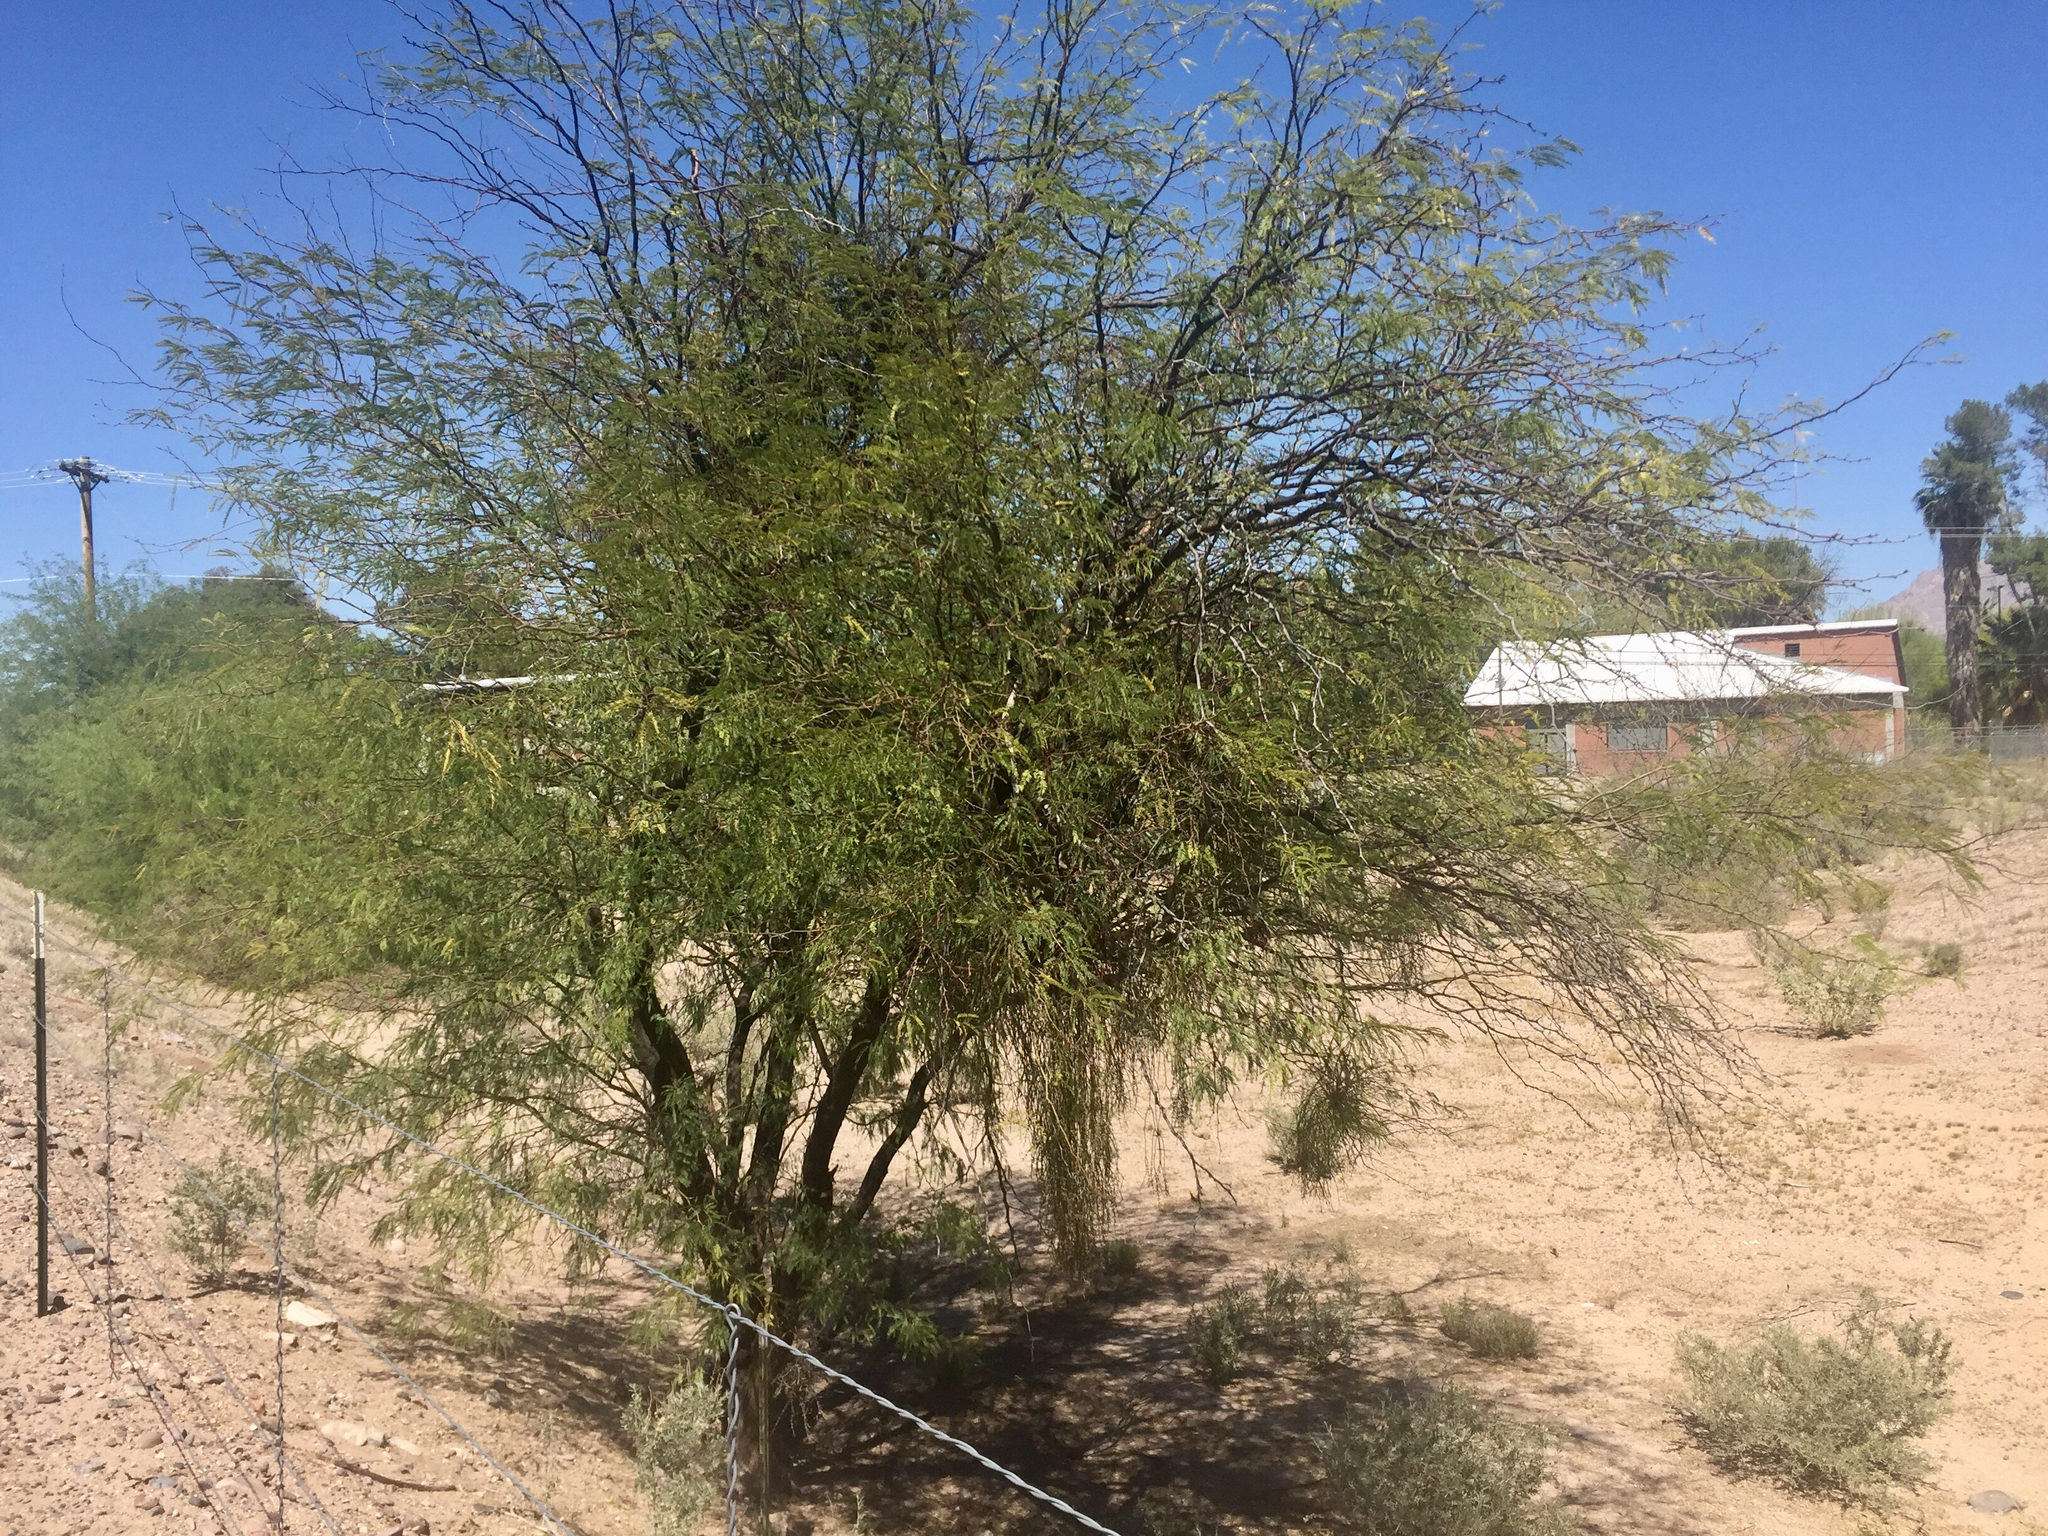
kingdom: Plantae
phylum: Tracheophyta
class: Magnoliopsida
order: Fabales
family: Fabaceae
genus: Prosopis
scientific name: Prosopis velutina
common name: Velvet mesquite
